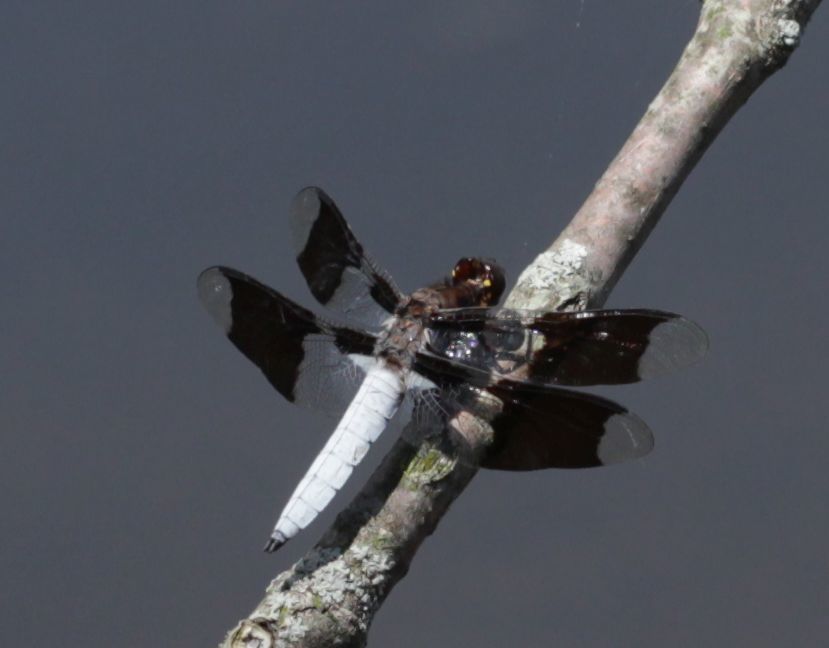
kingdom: Animalia
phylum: Arthropoda
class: Insecta
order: Odonata
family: Libellulidae
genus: Plathemis
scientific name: Plathemis lydia
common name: Common whitetail
